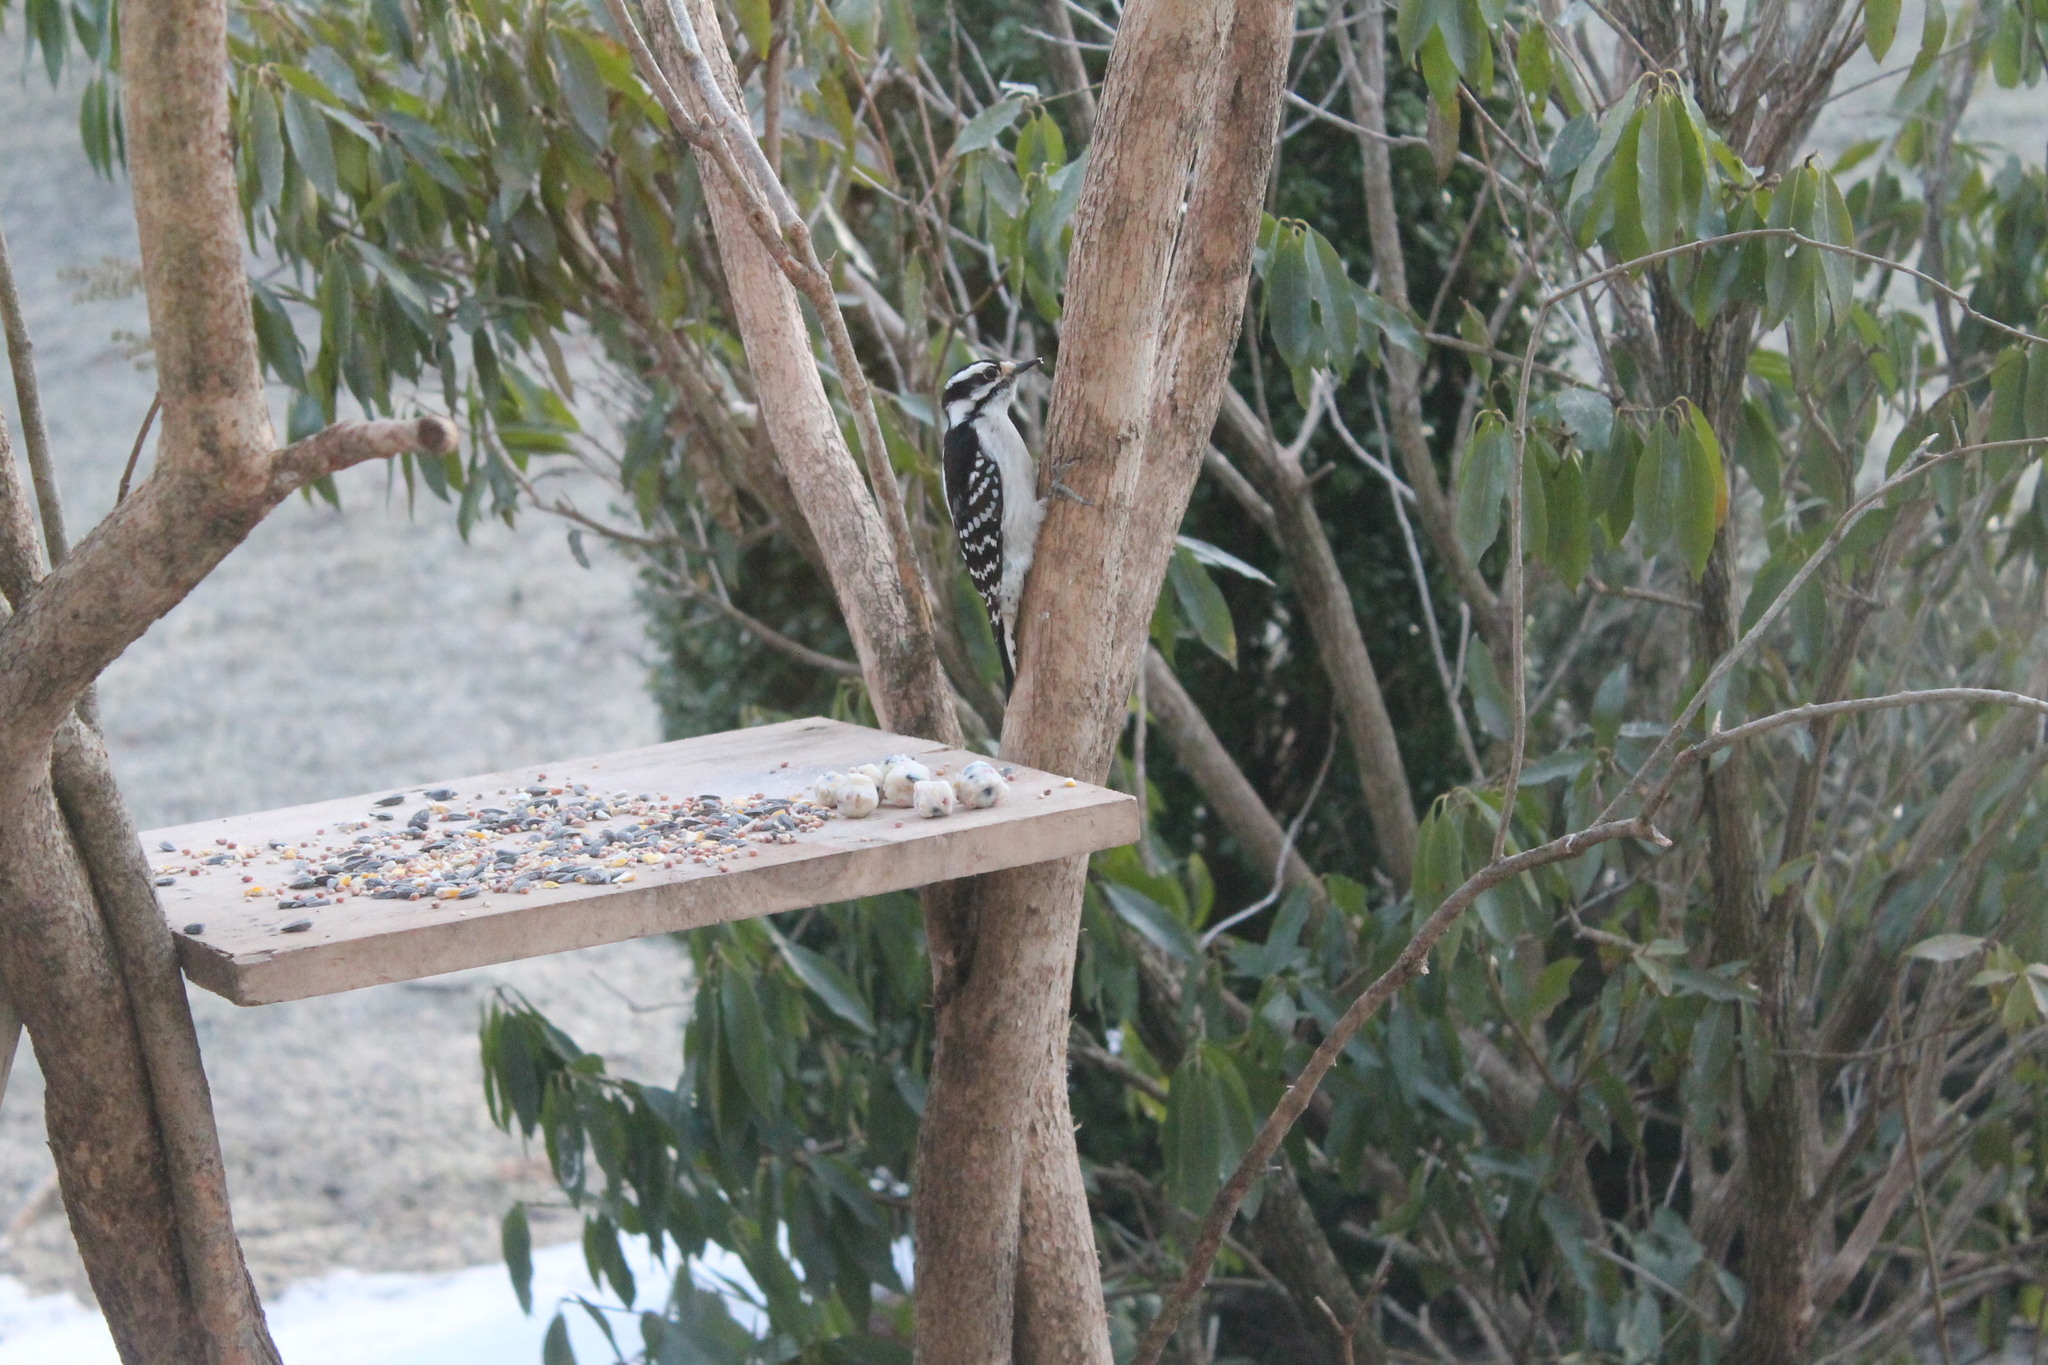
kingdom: Animalia
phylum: Chordata
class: Aves
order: Piciformes
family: Picidae
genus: Dryobates
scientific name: Dryobates pubescens
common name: Downy woodpecker
